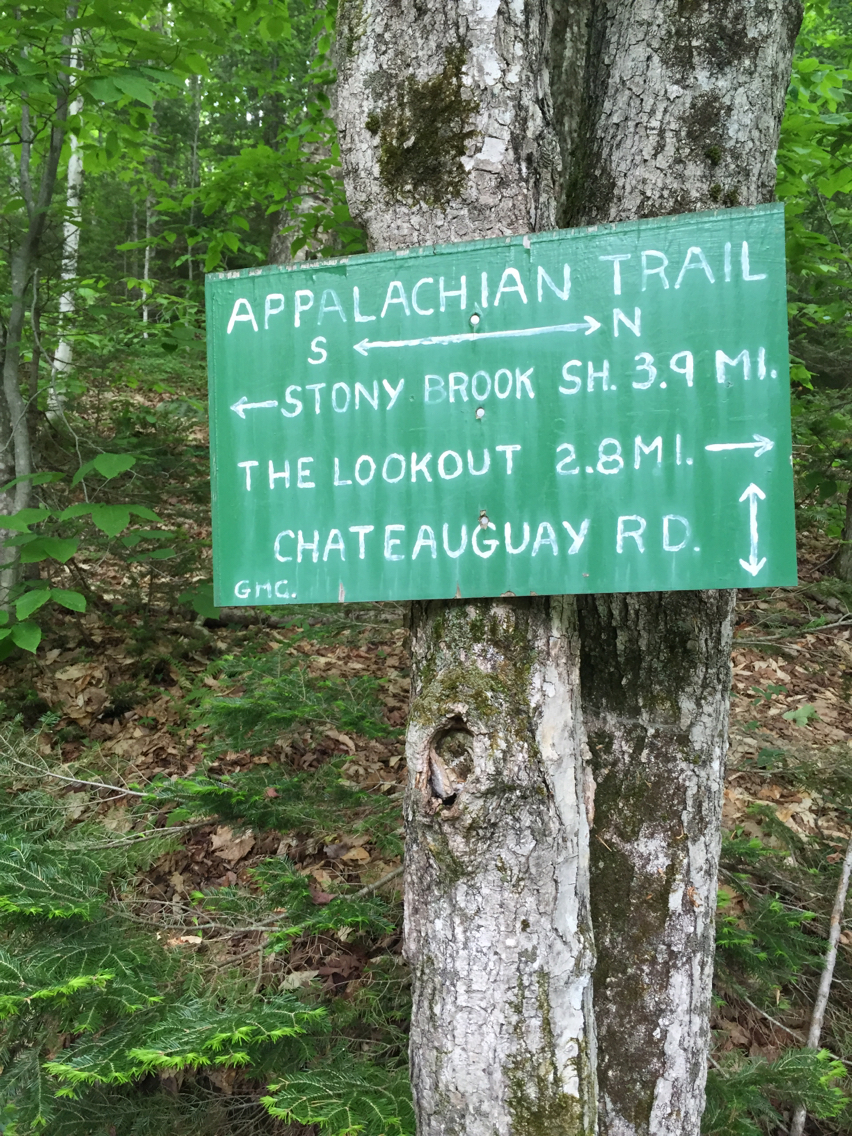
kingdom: Plantae
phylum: Tracheophyta
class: Pinopsida
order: Pinales
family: Pinaceae
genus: Abies
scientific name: Abies balsamea
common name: Balsam fir
